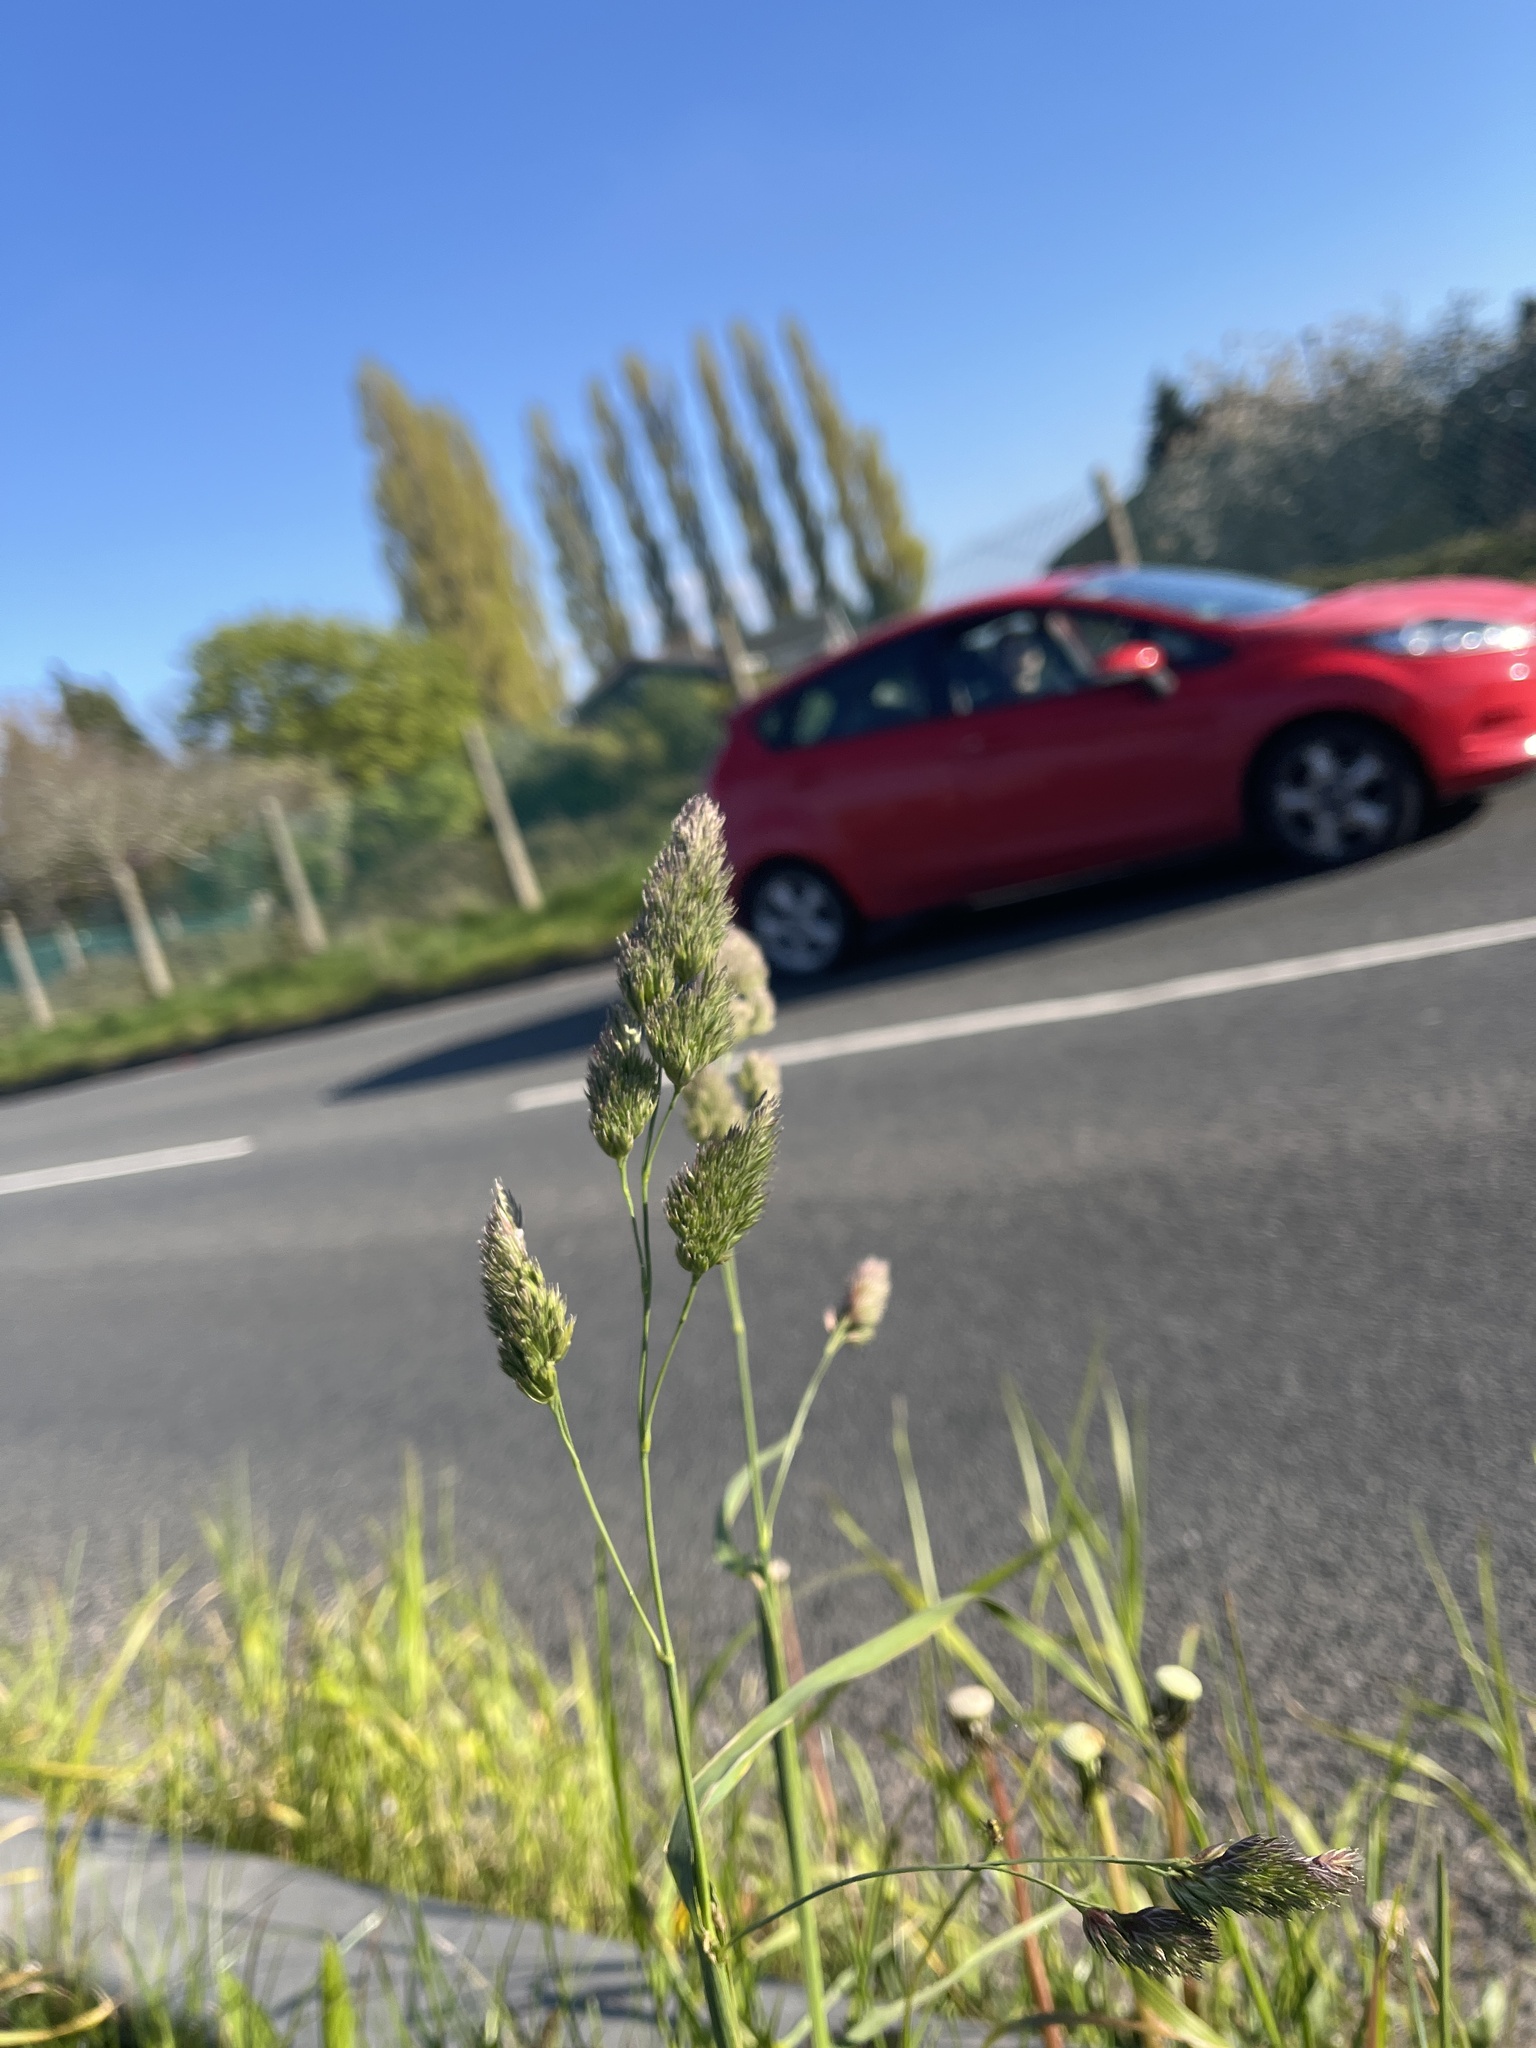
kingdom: Plantae
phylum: Tracheophyta
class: Liliopsida
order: Poales
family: Poaceae
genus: Dactylis
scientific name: Dactylis glomerata
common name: Orchardgrass
